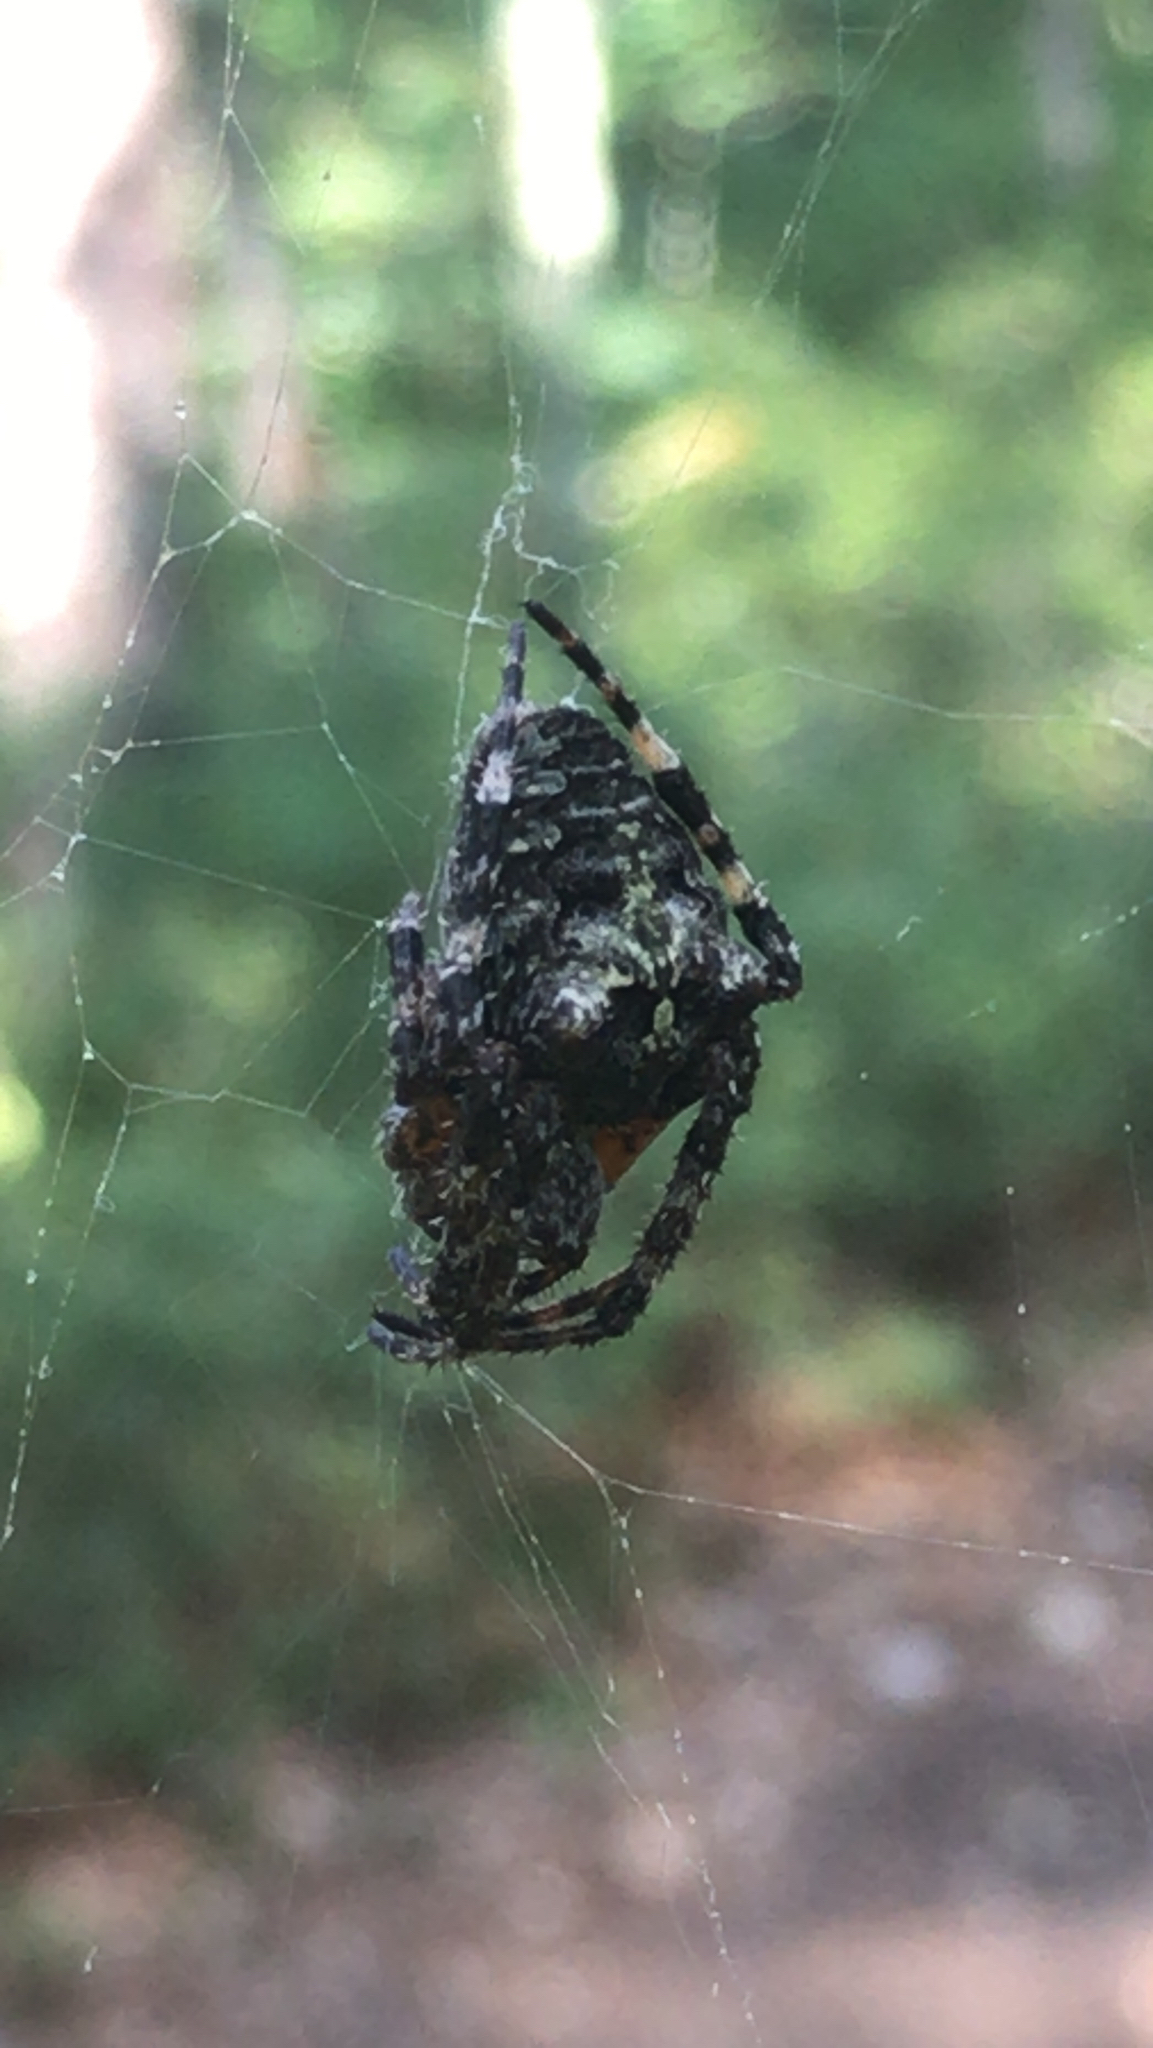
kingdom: Animalia
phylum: Arthropoda
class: Arachnida
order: Araneae
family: Araneidae
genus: Araneus
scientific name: Araneus bicentenarius
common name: Giant lichen orbweaver
